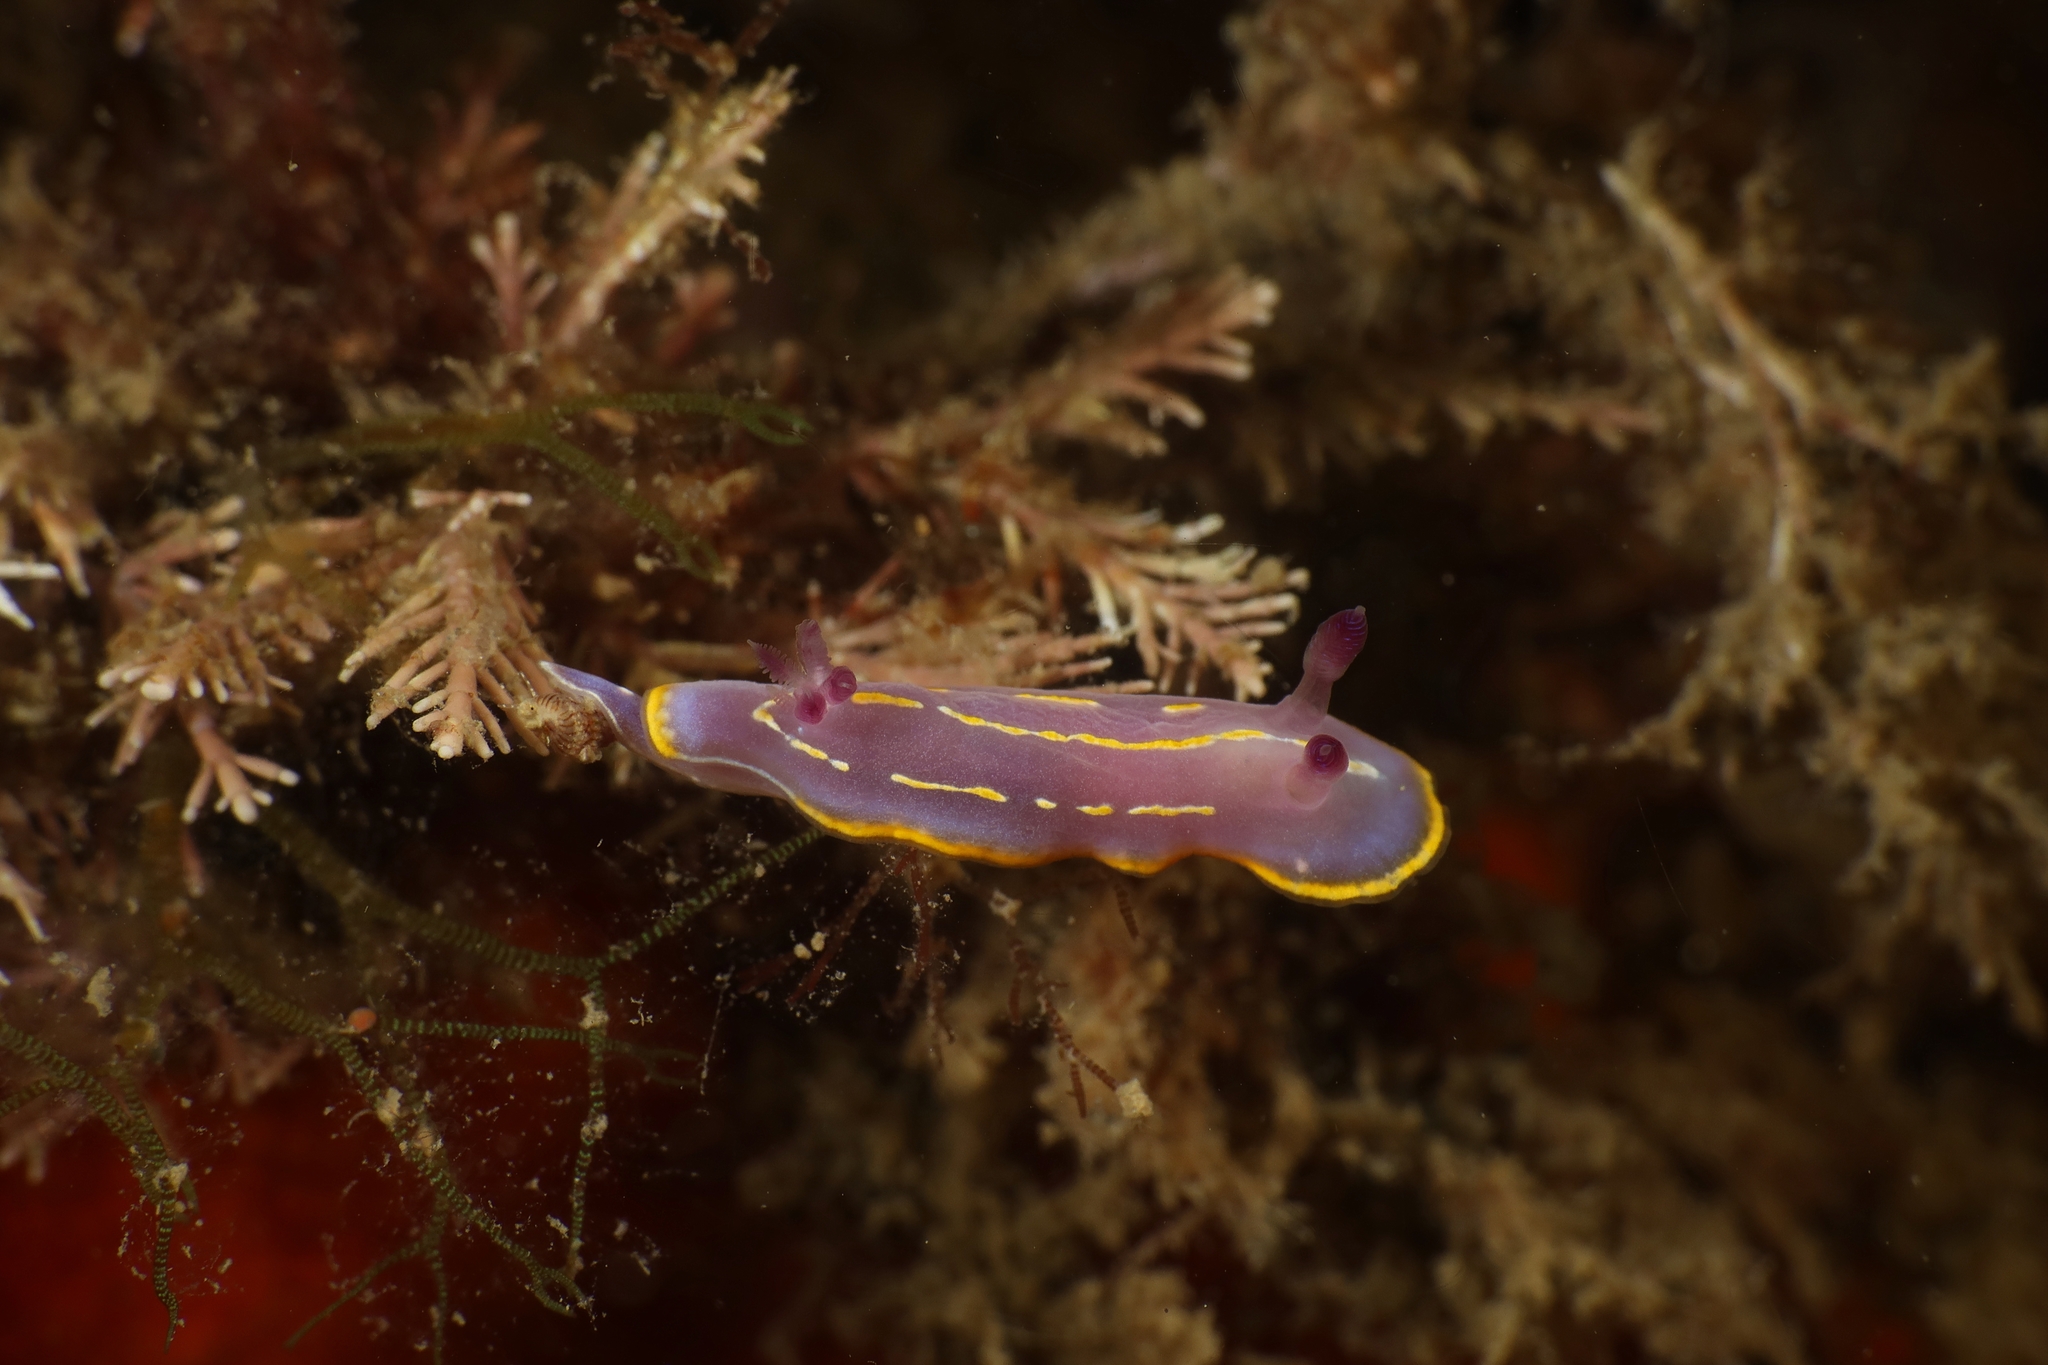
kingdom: Animalia
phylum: Mollusca
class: Gastropoda
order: Nudibranchia
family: Chromodorididae
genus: Felimida
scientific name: Felimida krohni
